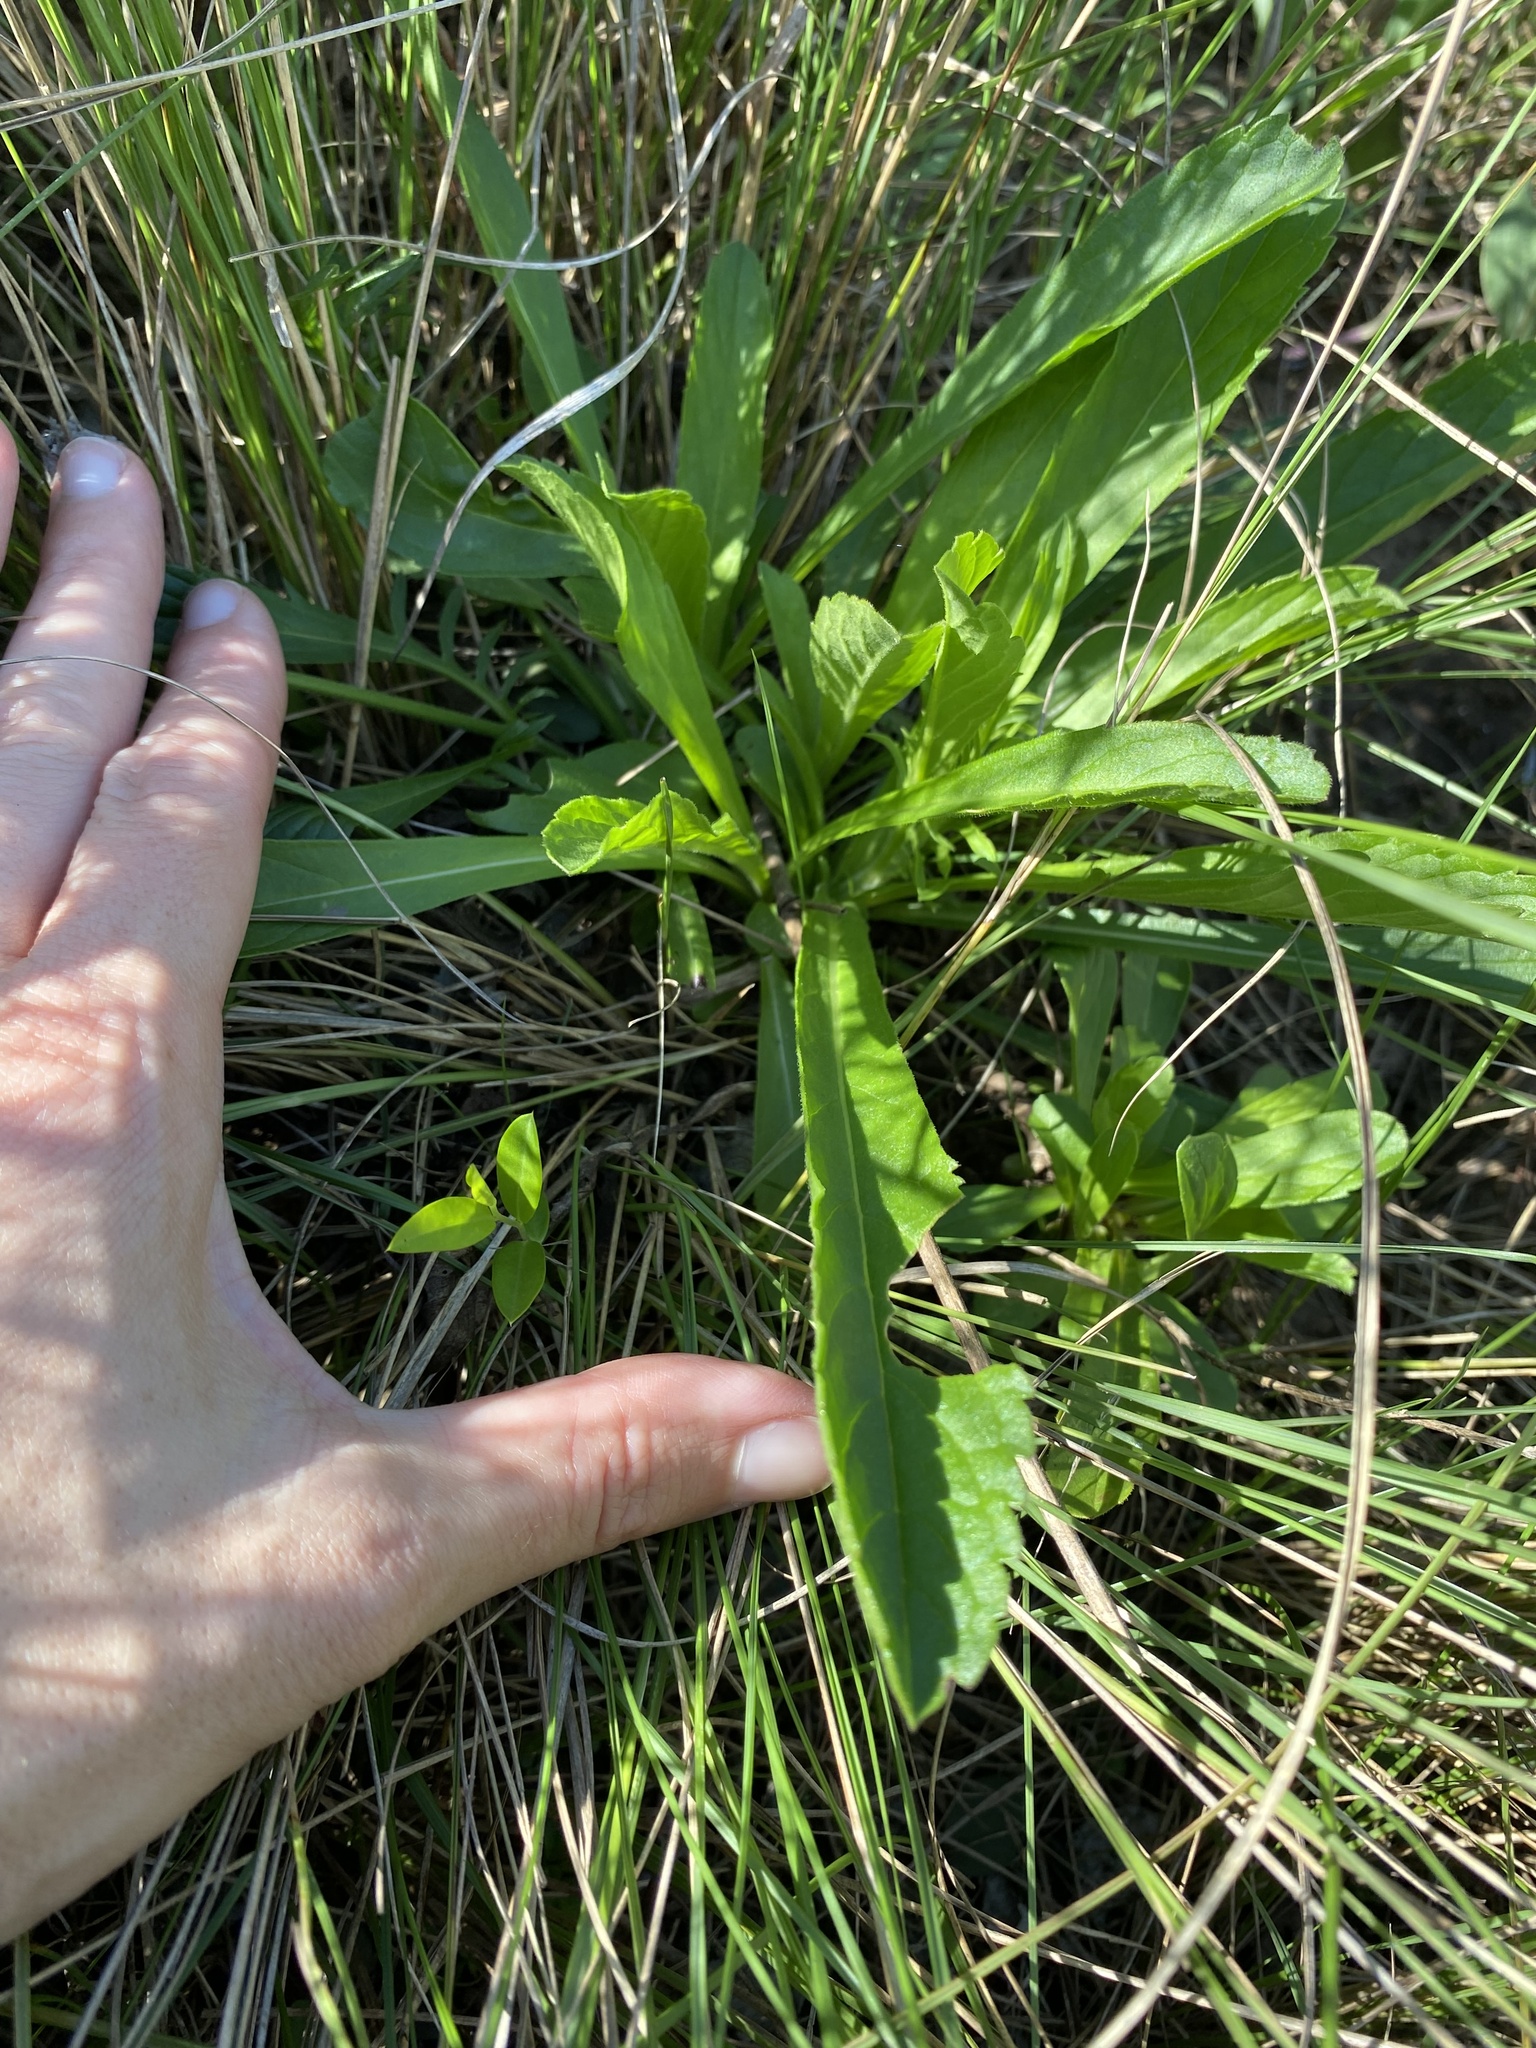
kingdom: Plantae
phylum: Tracheophyta
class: Magnoliopsida
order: Dipsacales
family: Caprifoliaceae
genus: Scabiosa
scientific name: Scabiosa columbaria
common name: Small scabious
